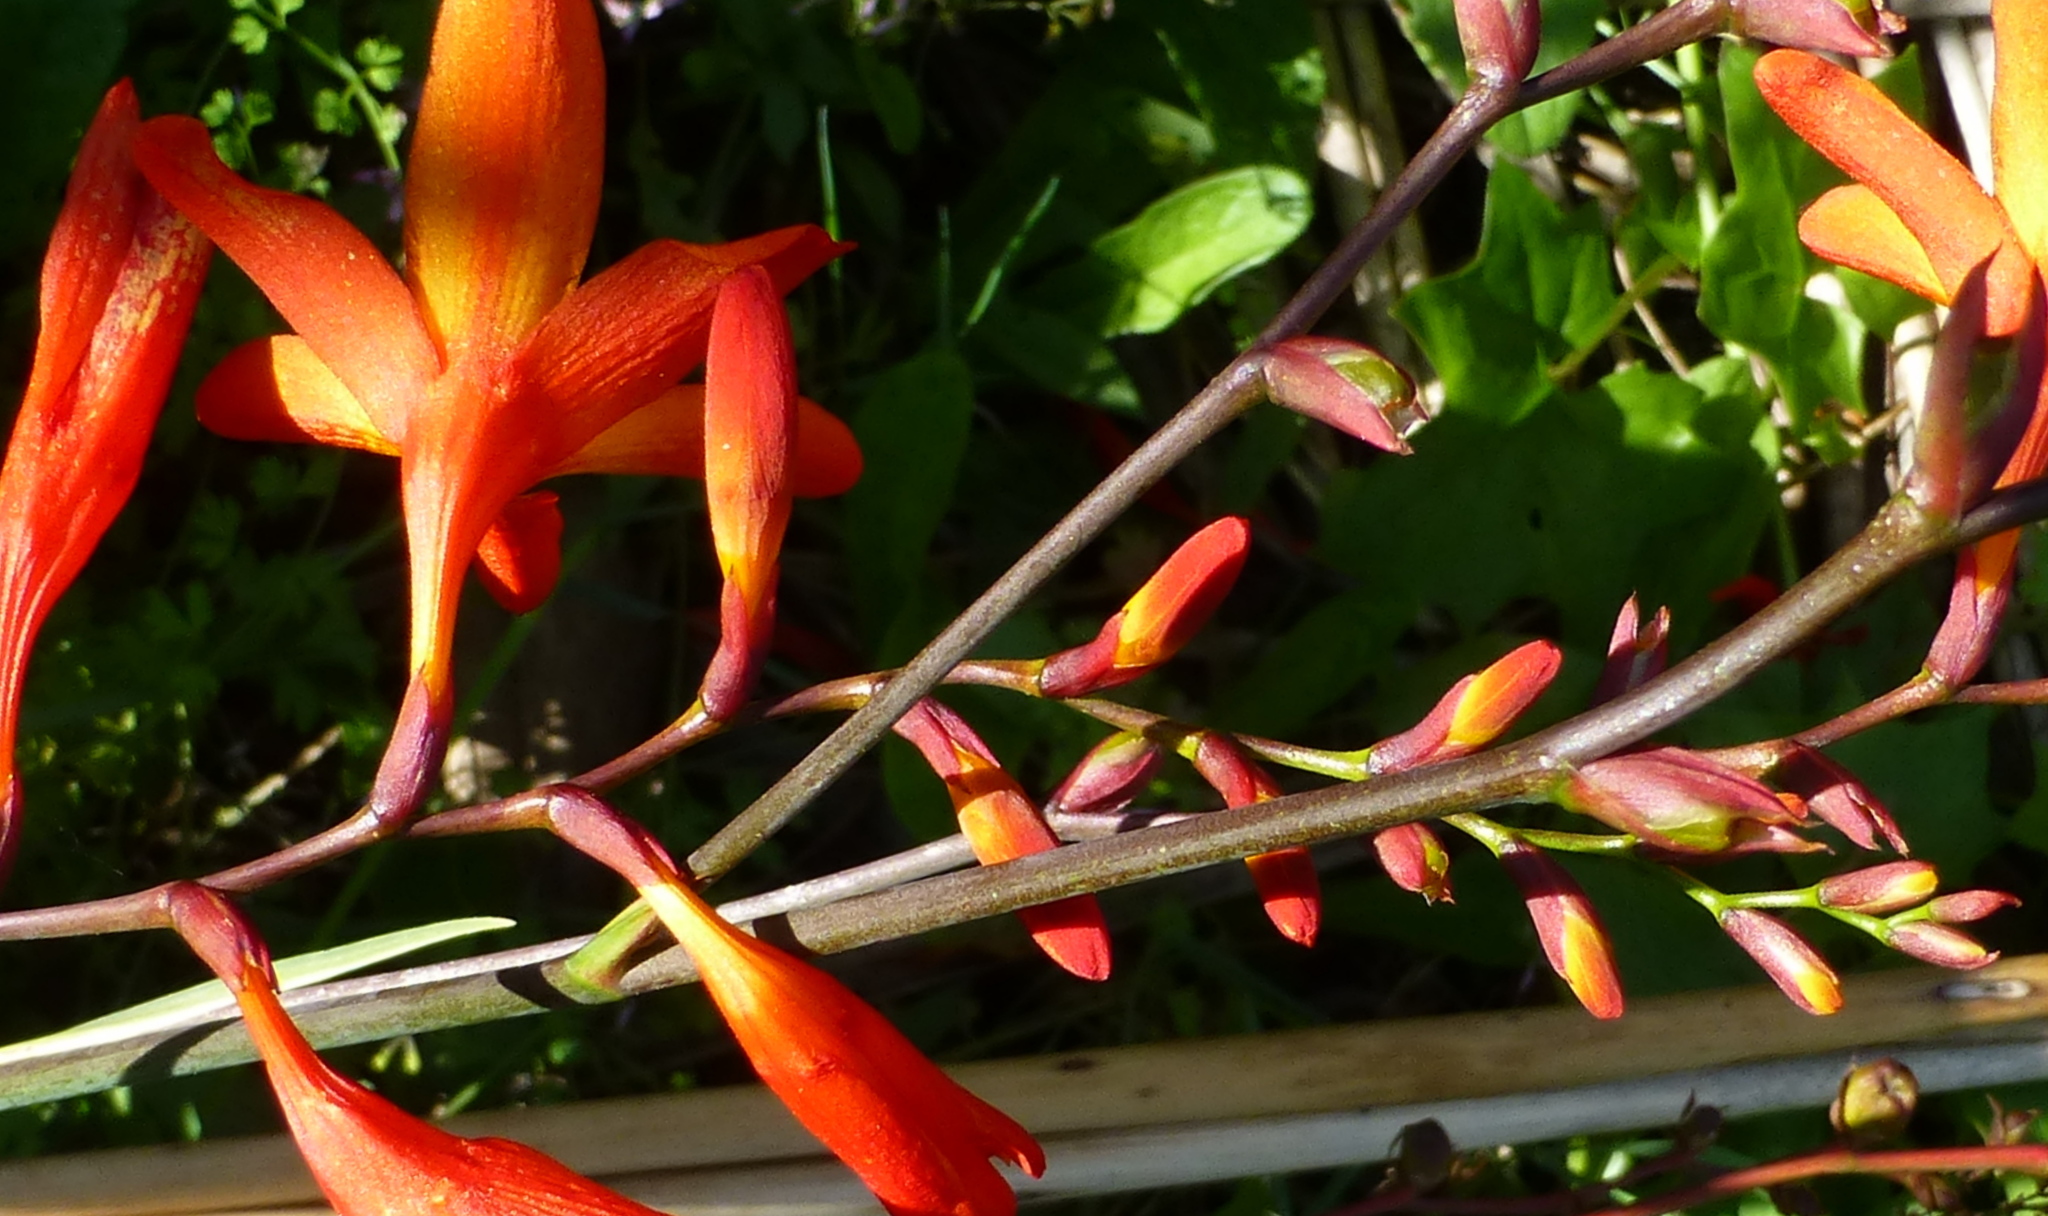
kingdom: Plantae
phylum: Tracheophyta
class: Liliopsida
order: Asparagales
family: Iridaceae
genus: Crocosmia
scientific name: Crocosmia crocosmiiflora
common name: Montbretia
